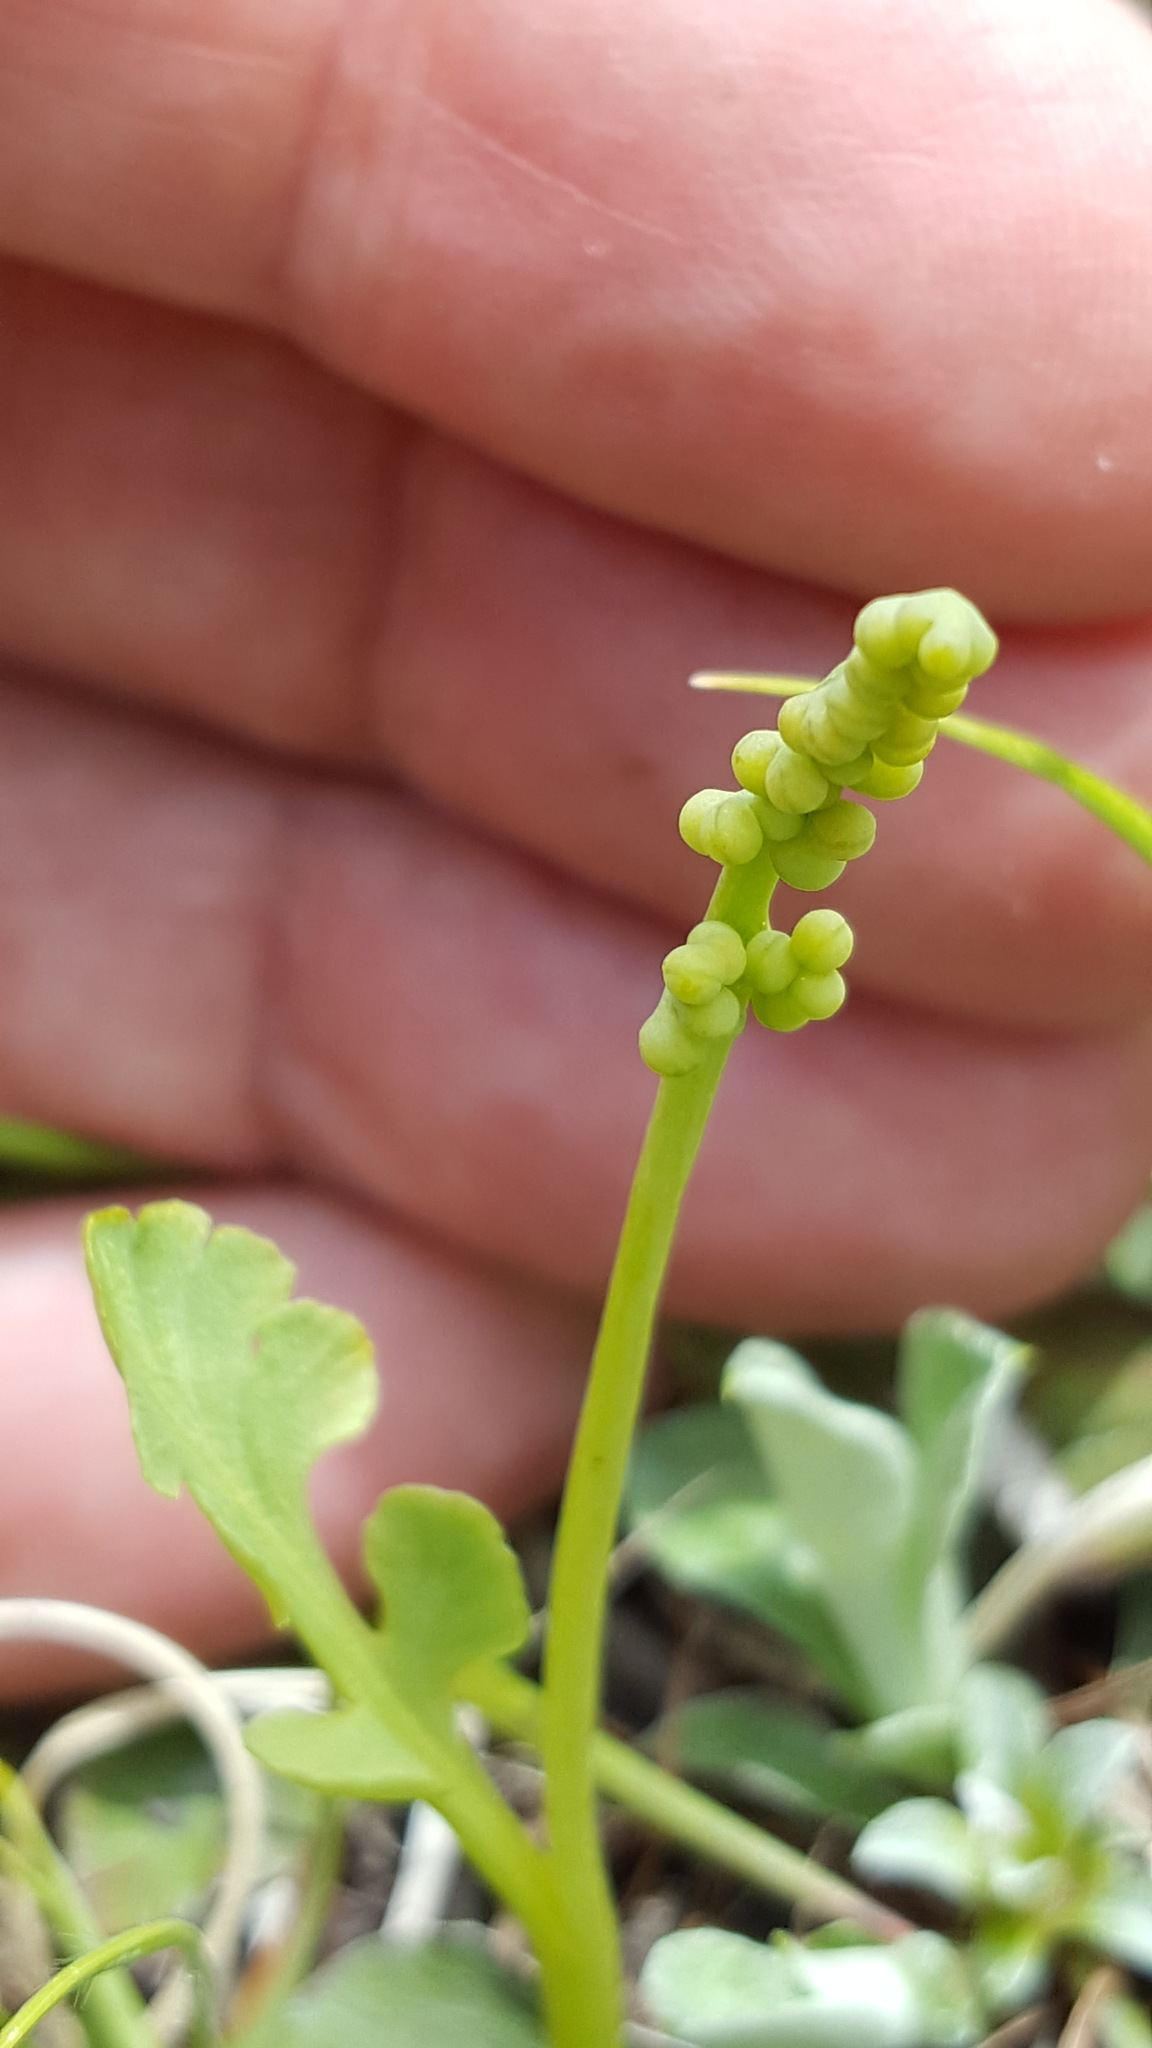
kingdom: Plantae
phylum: Tracheophyta
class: Polypodiopsida
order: Ophioglossales
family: Ophioglossaceae
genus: Botrychium
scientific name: Botrychium simplex
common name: Least moonwort
